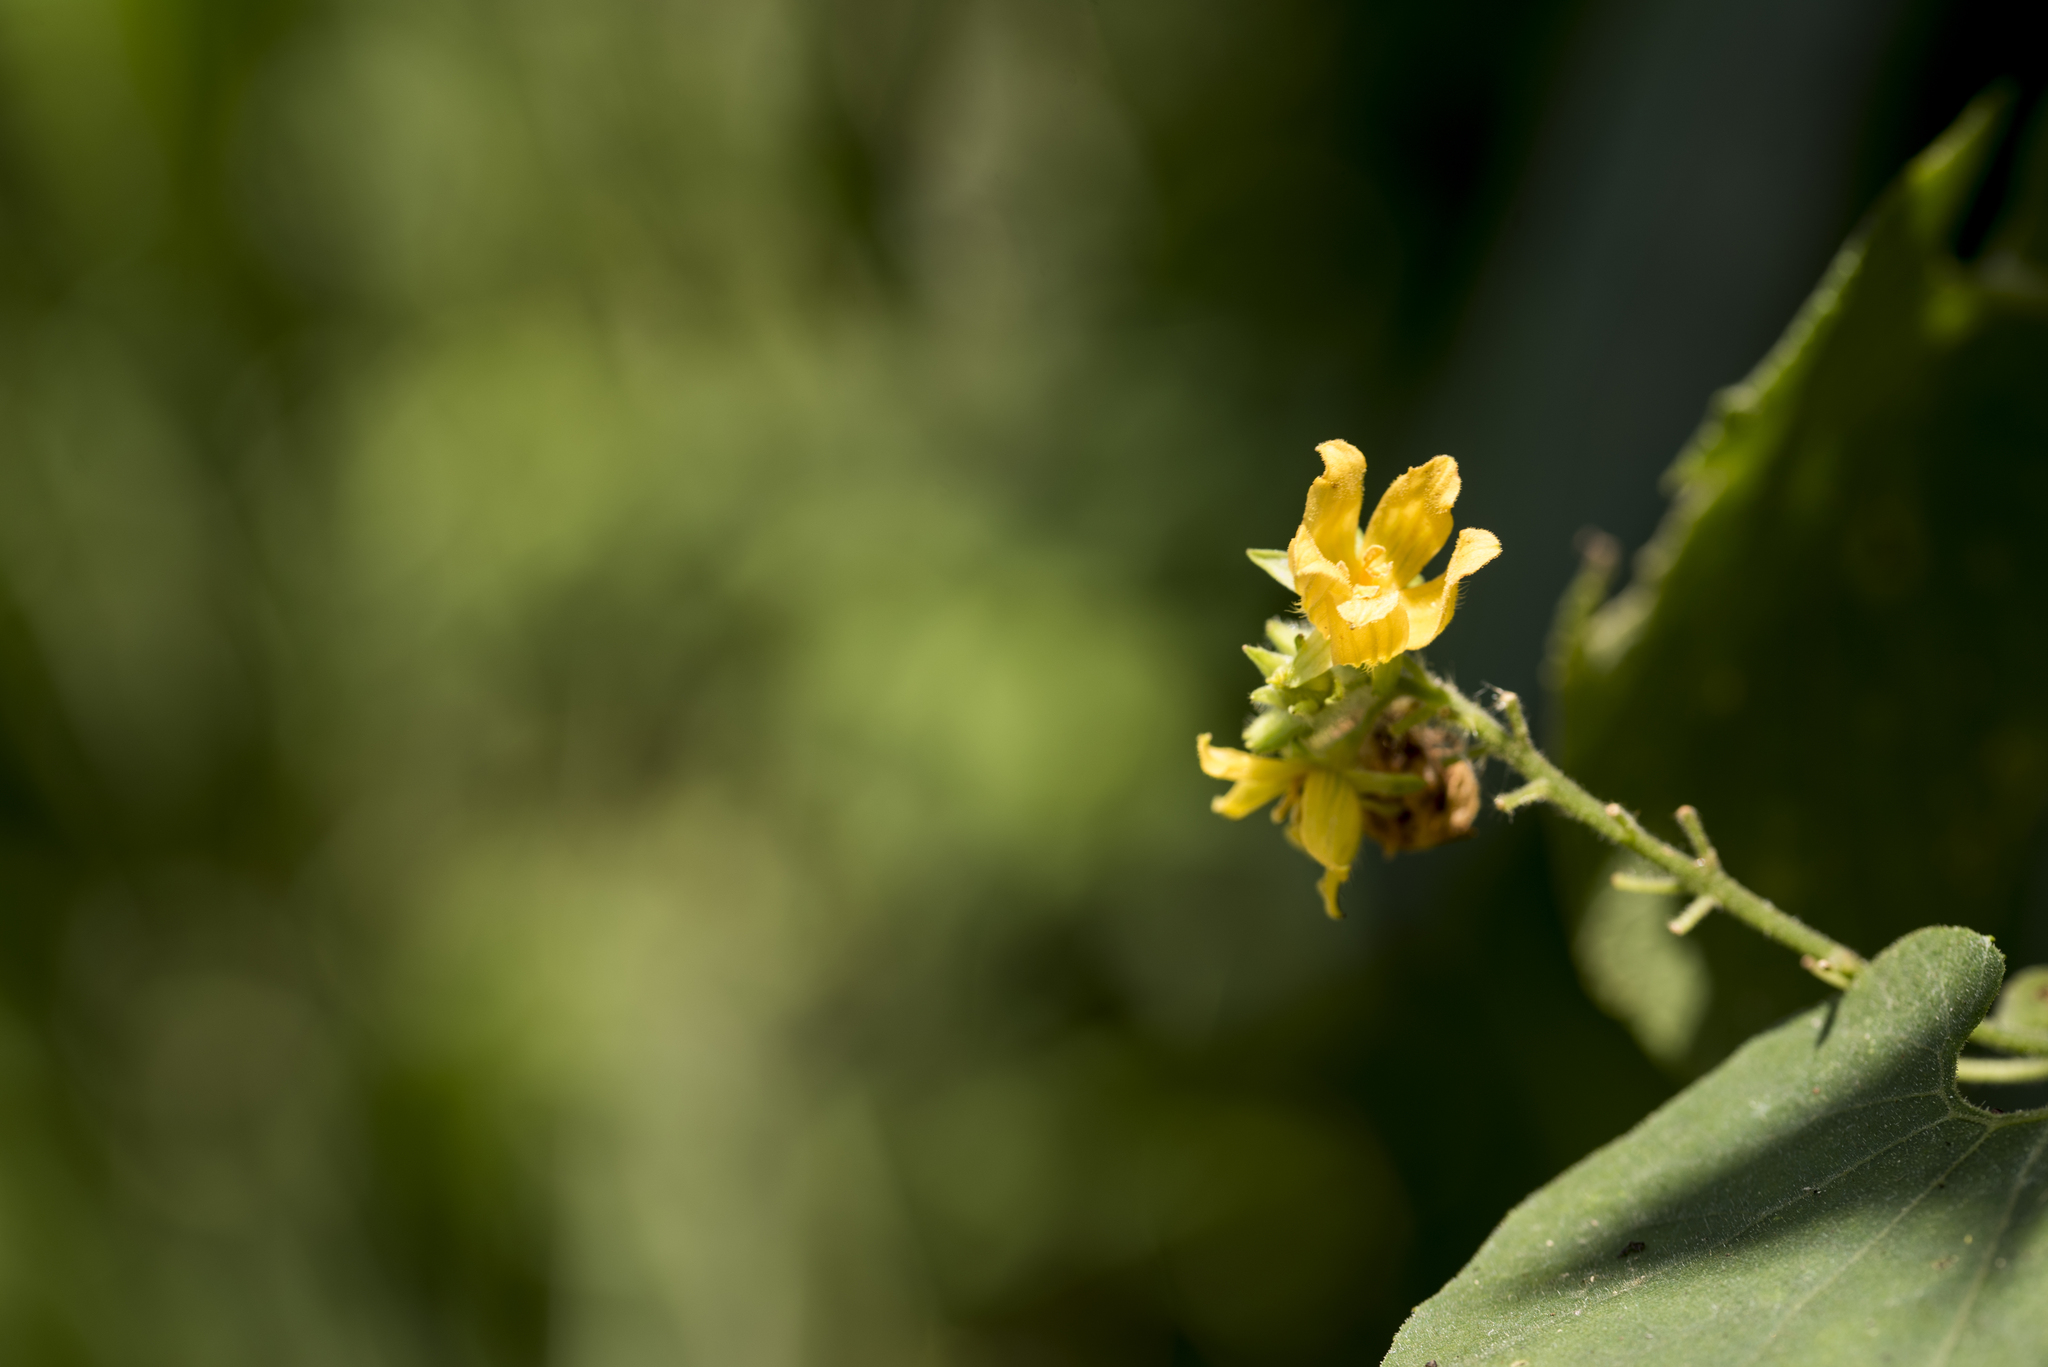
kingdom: Plantae
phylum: Tracheophyta
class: Magnoliopsida
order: Cucurbitales
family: Cucurbitaceae
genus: Thladiantha
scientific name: Thladiantha nudiflora
